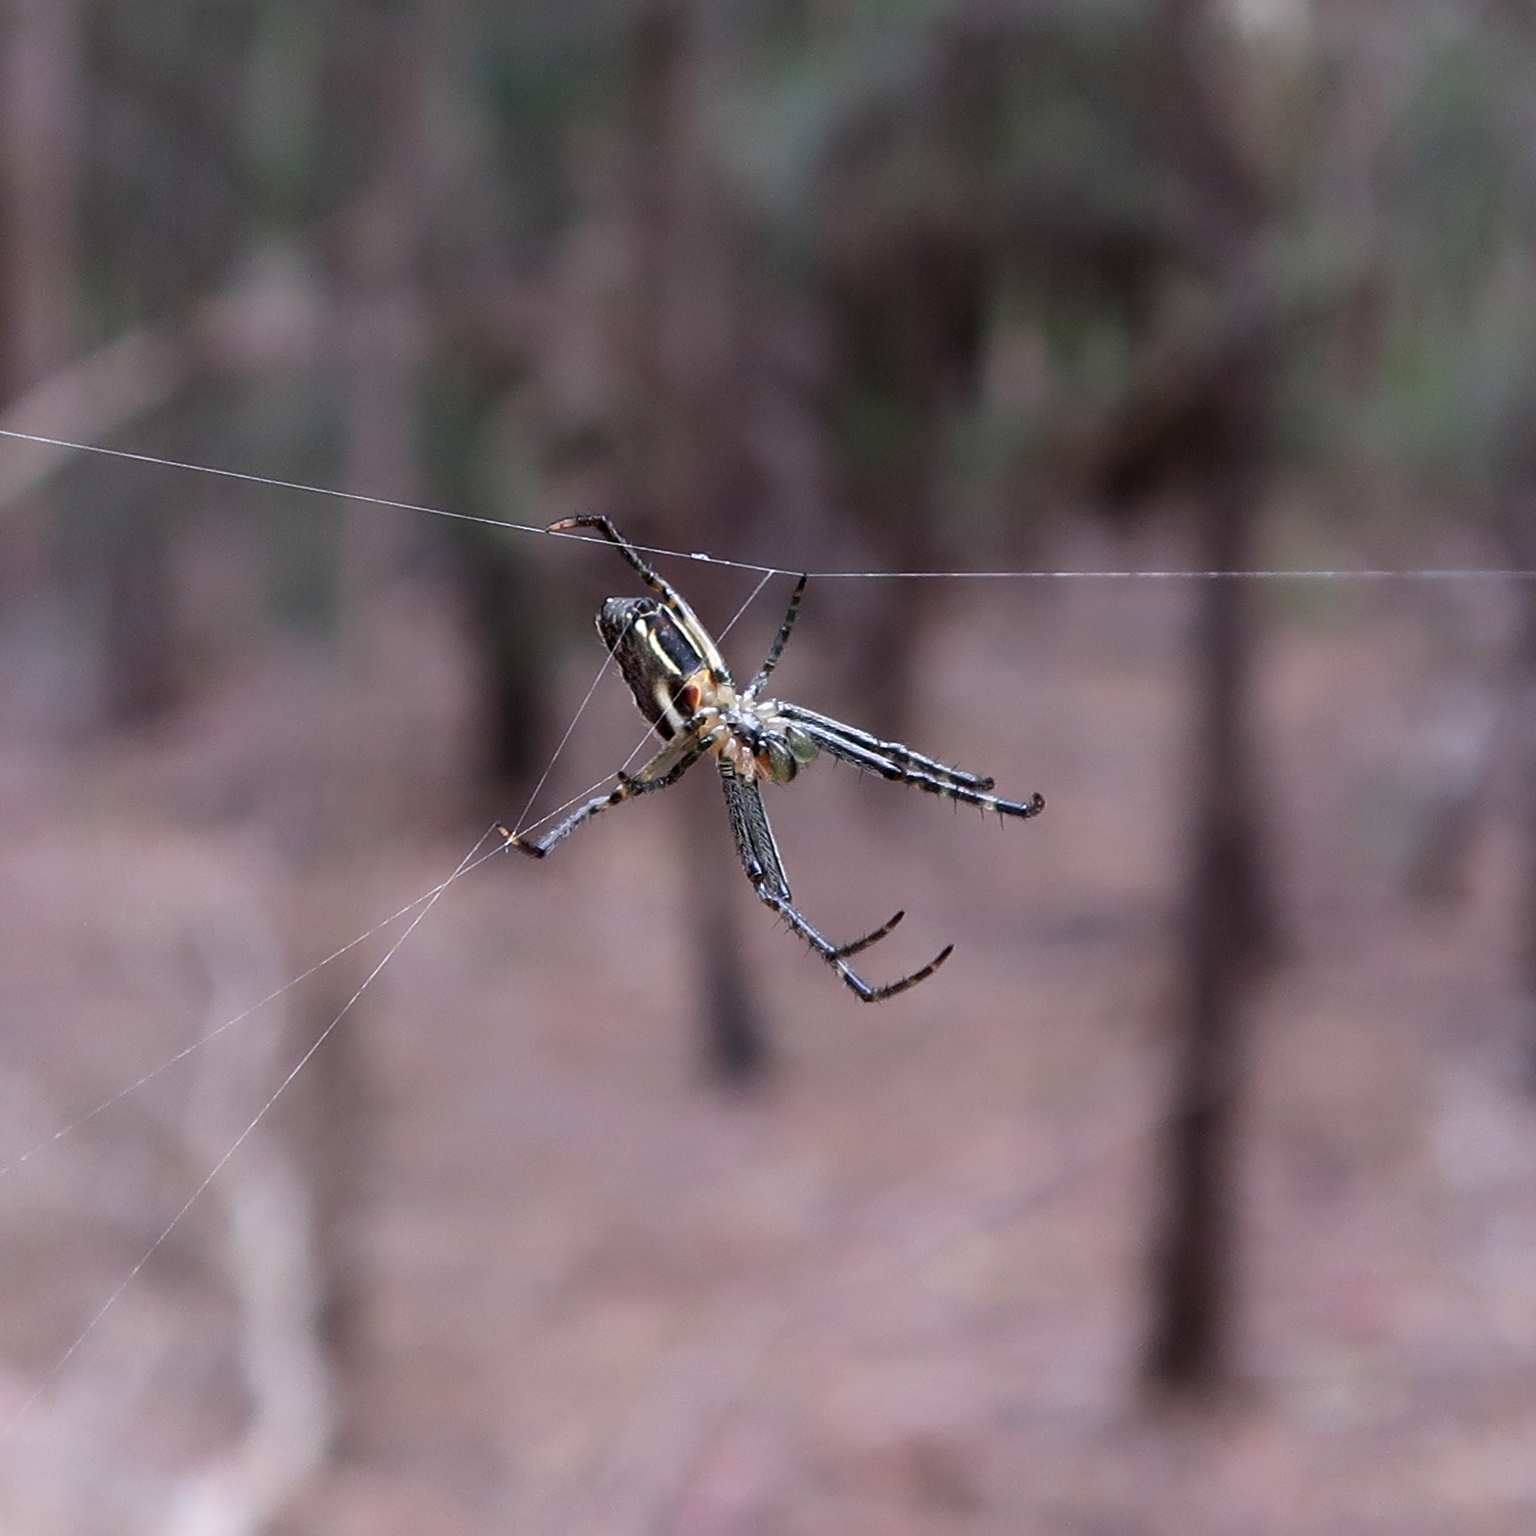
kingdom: Animalia
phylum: Arthropoda
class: Arachnida
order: Araneae
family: Araneidae
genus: Plebs
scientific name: Plebs bradleyi
